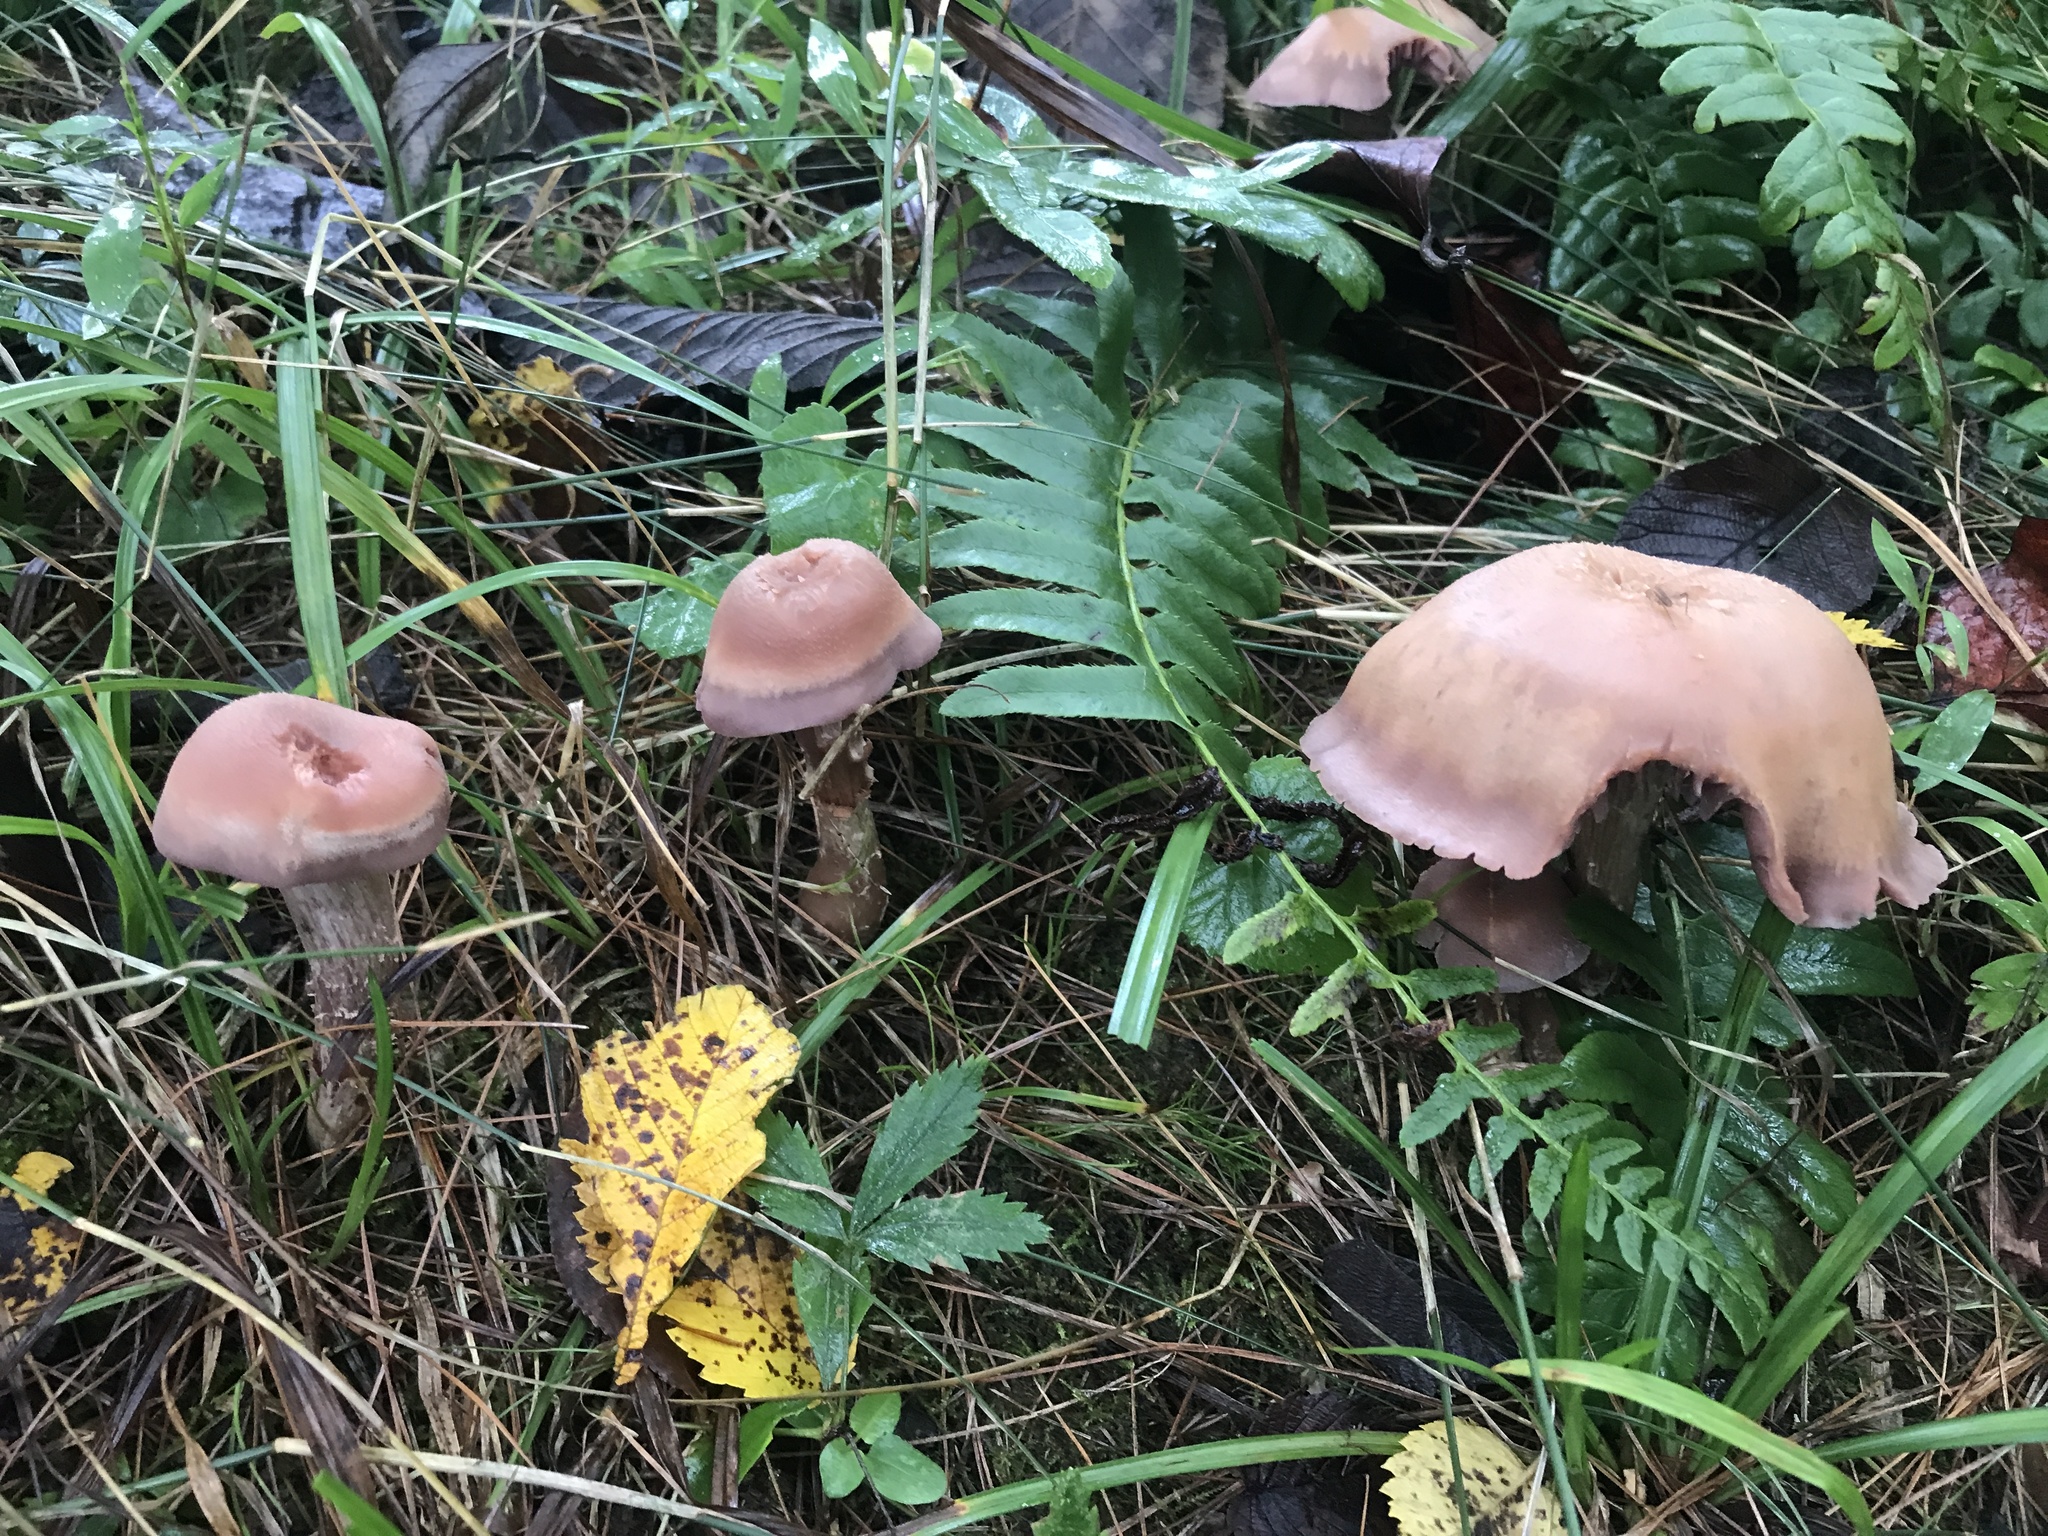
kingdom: Fungi
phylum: Basidiomycota
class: Agaricomycetes
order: Agaricales
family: Hydnangiaceae
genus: Laccaria
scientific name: Laccaria ochropurpurea
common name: Purple laccaria
